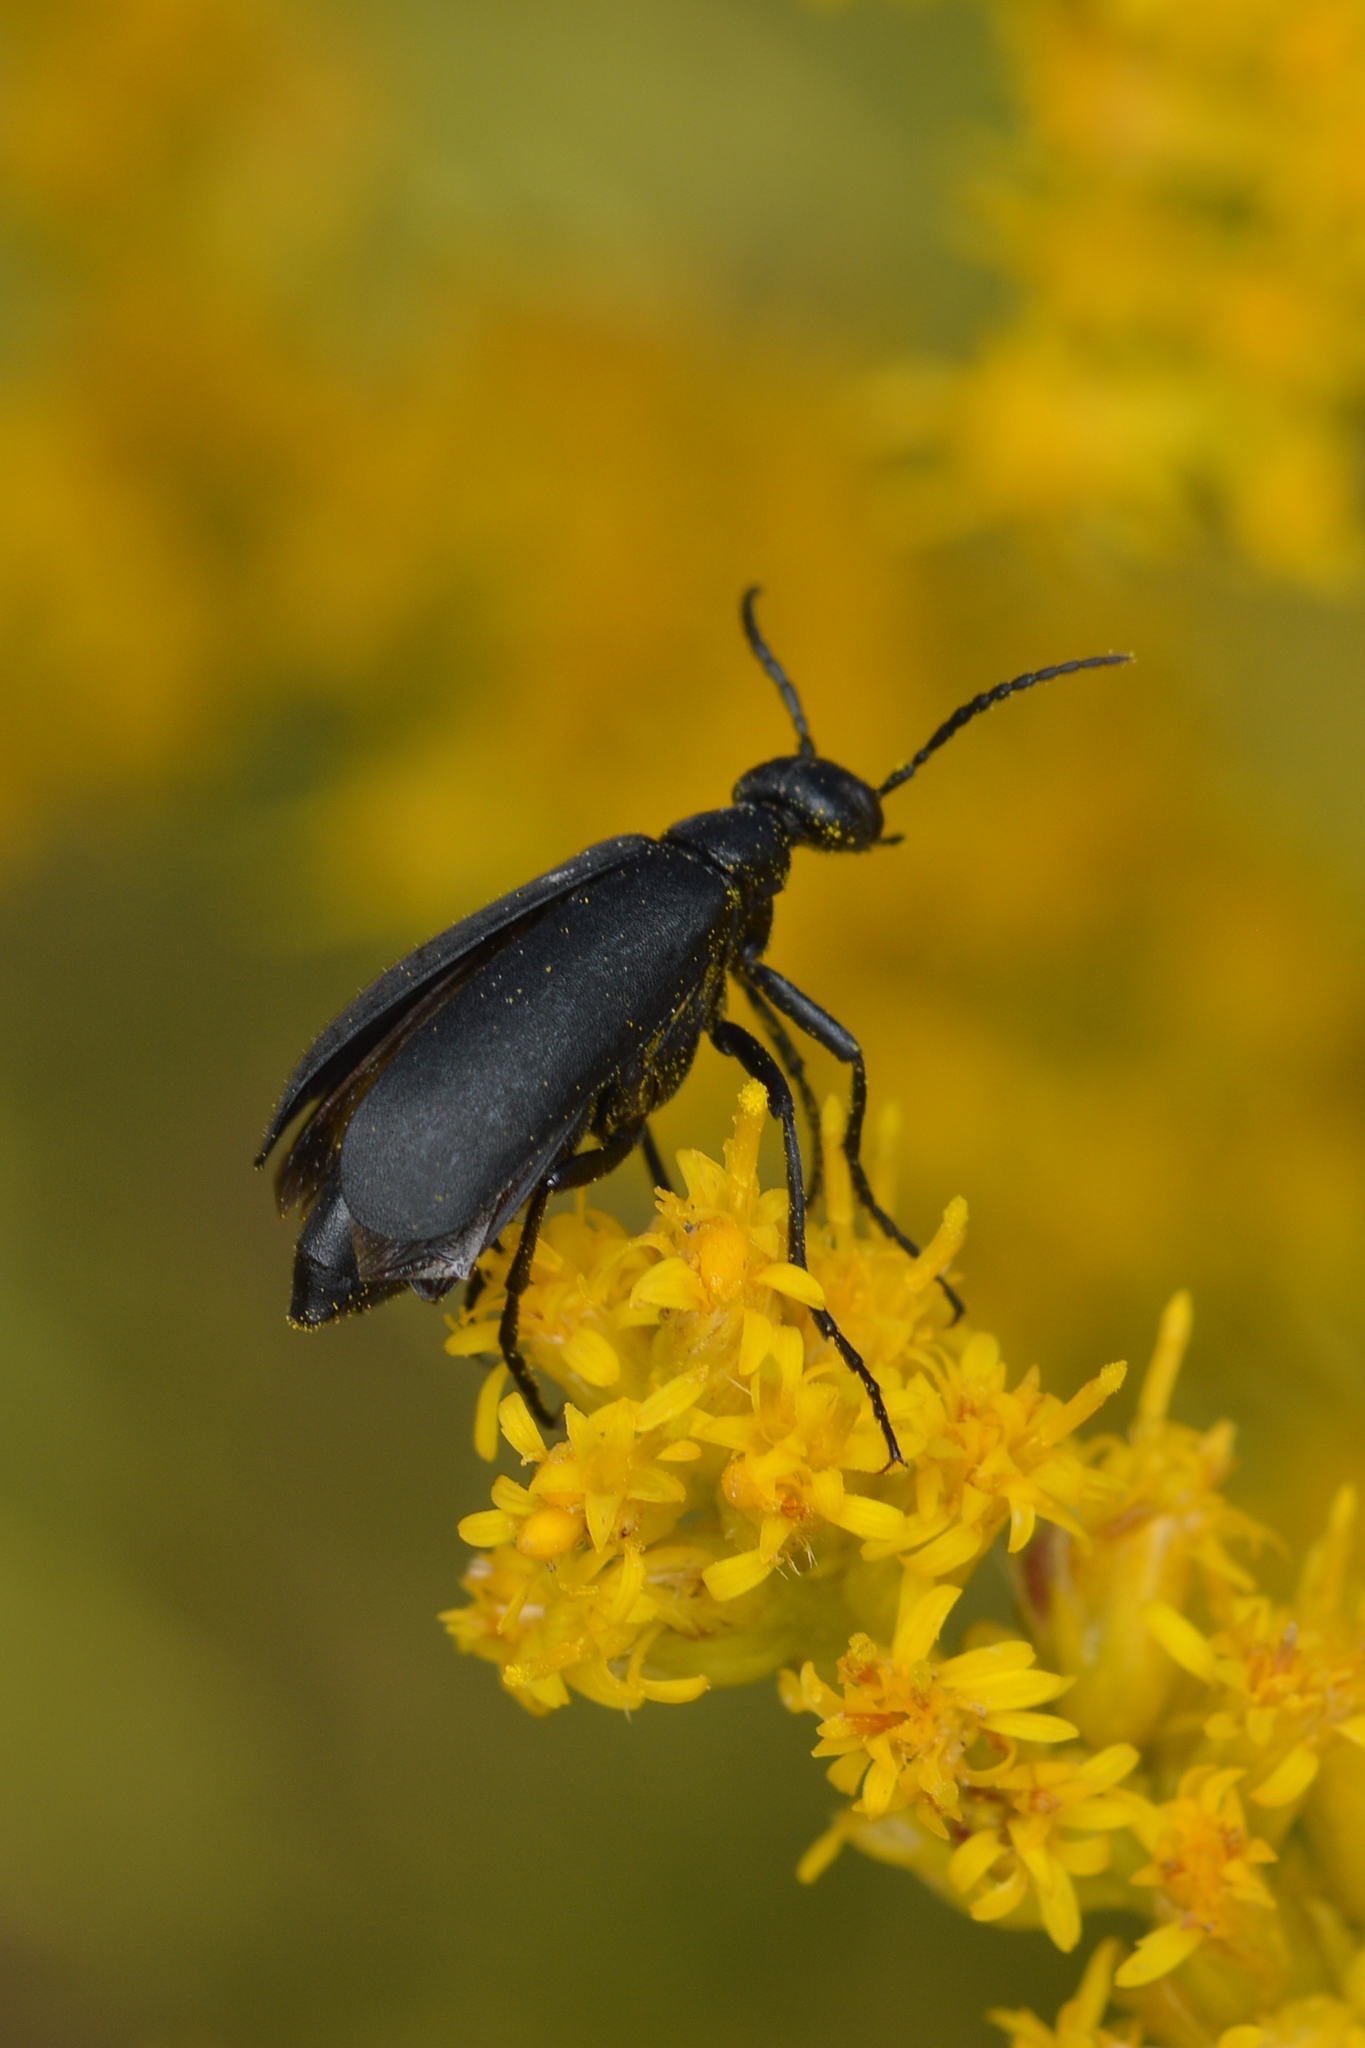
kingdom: Animalia
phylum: Arthropoda
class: Insecta
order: Coleoptera
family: Meloidae
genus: Epicauta
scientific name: Epicauta pensylvanica
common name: Black blister beetle
